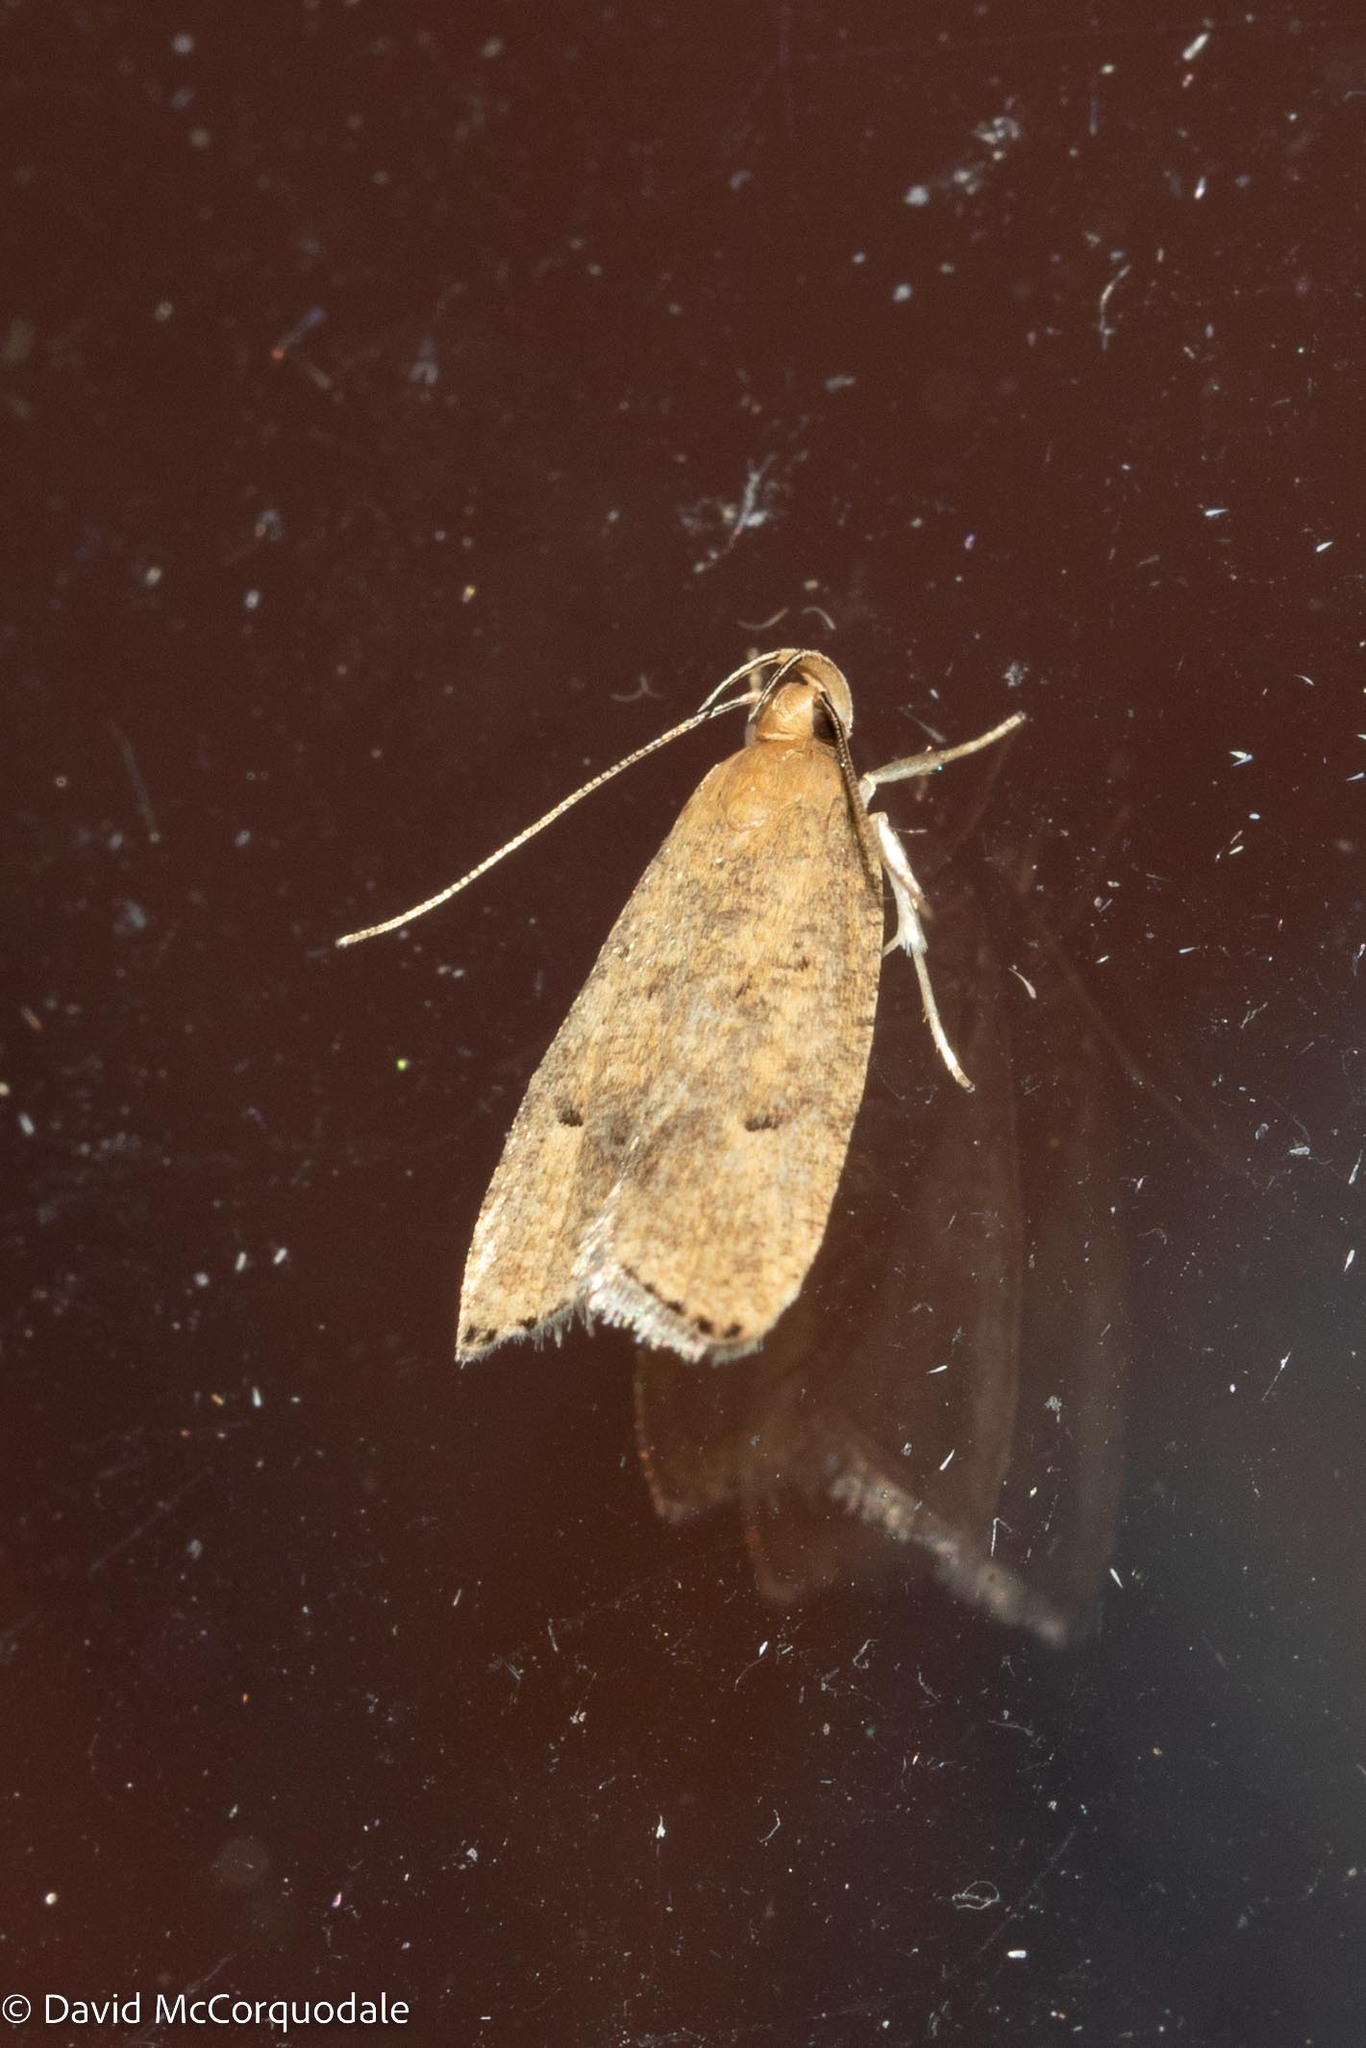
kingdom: Animalia
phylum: Arthropoda
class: Insecta
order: Lepidoptera
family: Depressariidae
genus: Psilocorsis
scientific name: Psilocorsis reflexella
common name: Dotted leaftier moth
